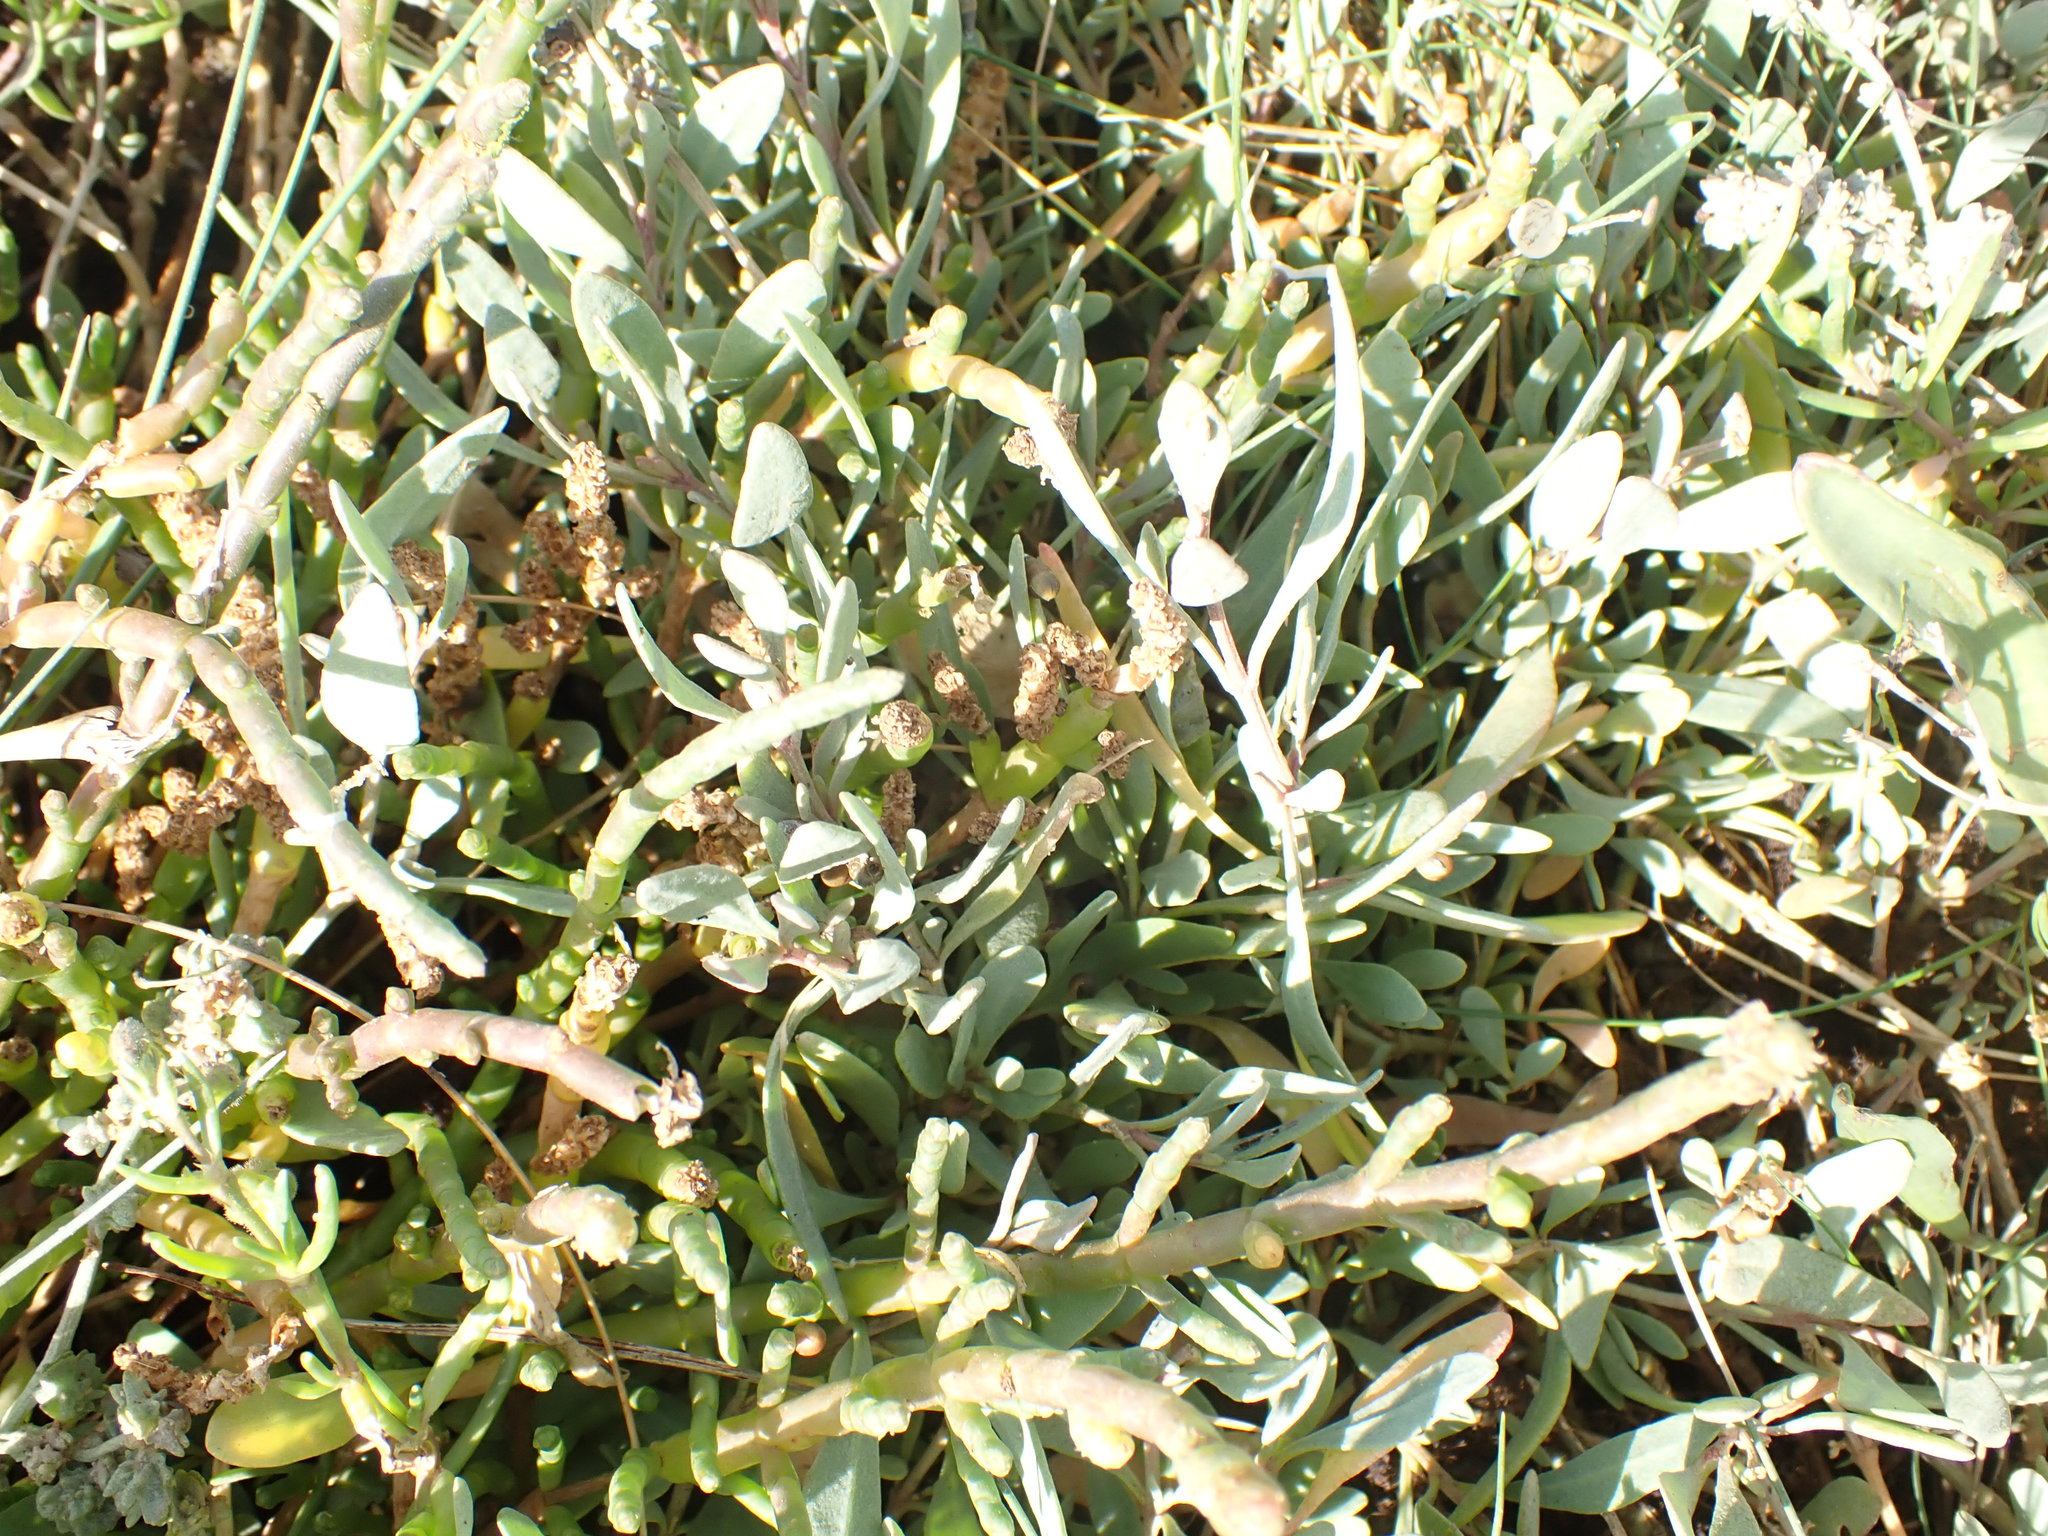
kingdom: Plantae
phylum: Tracheophyta
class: Magnoliopsida
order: Caryophyllales
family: Amaranthaceae
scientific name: Amaranthaceae
